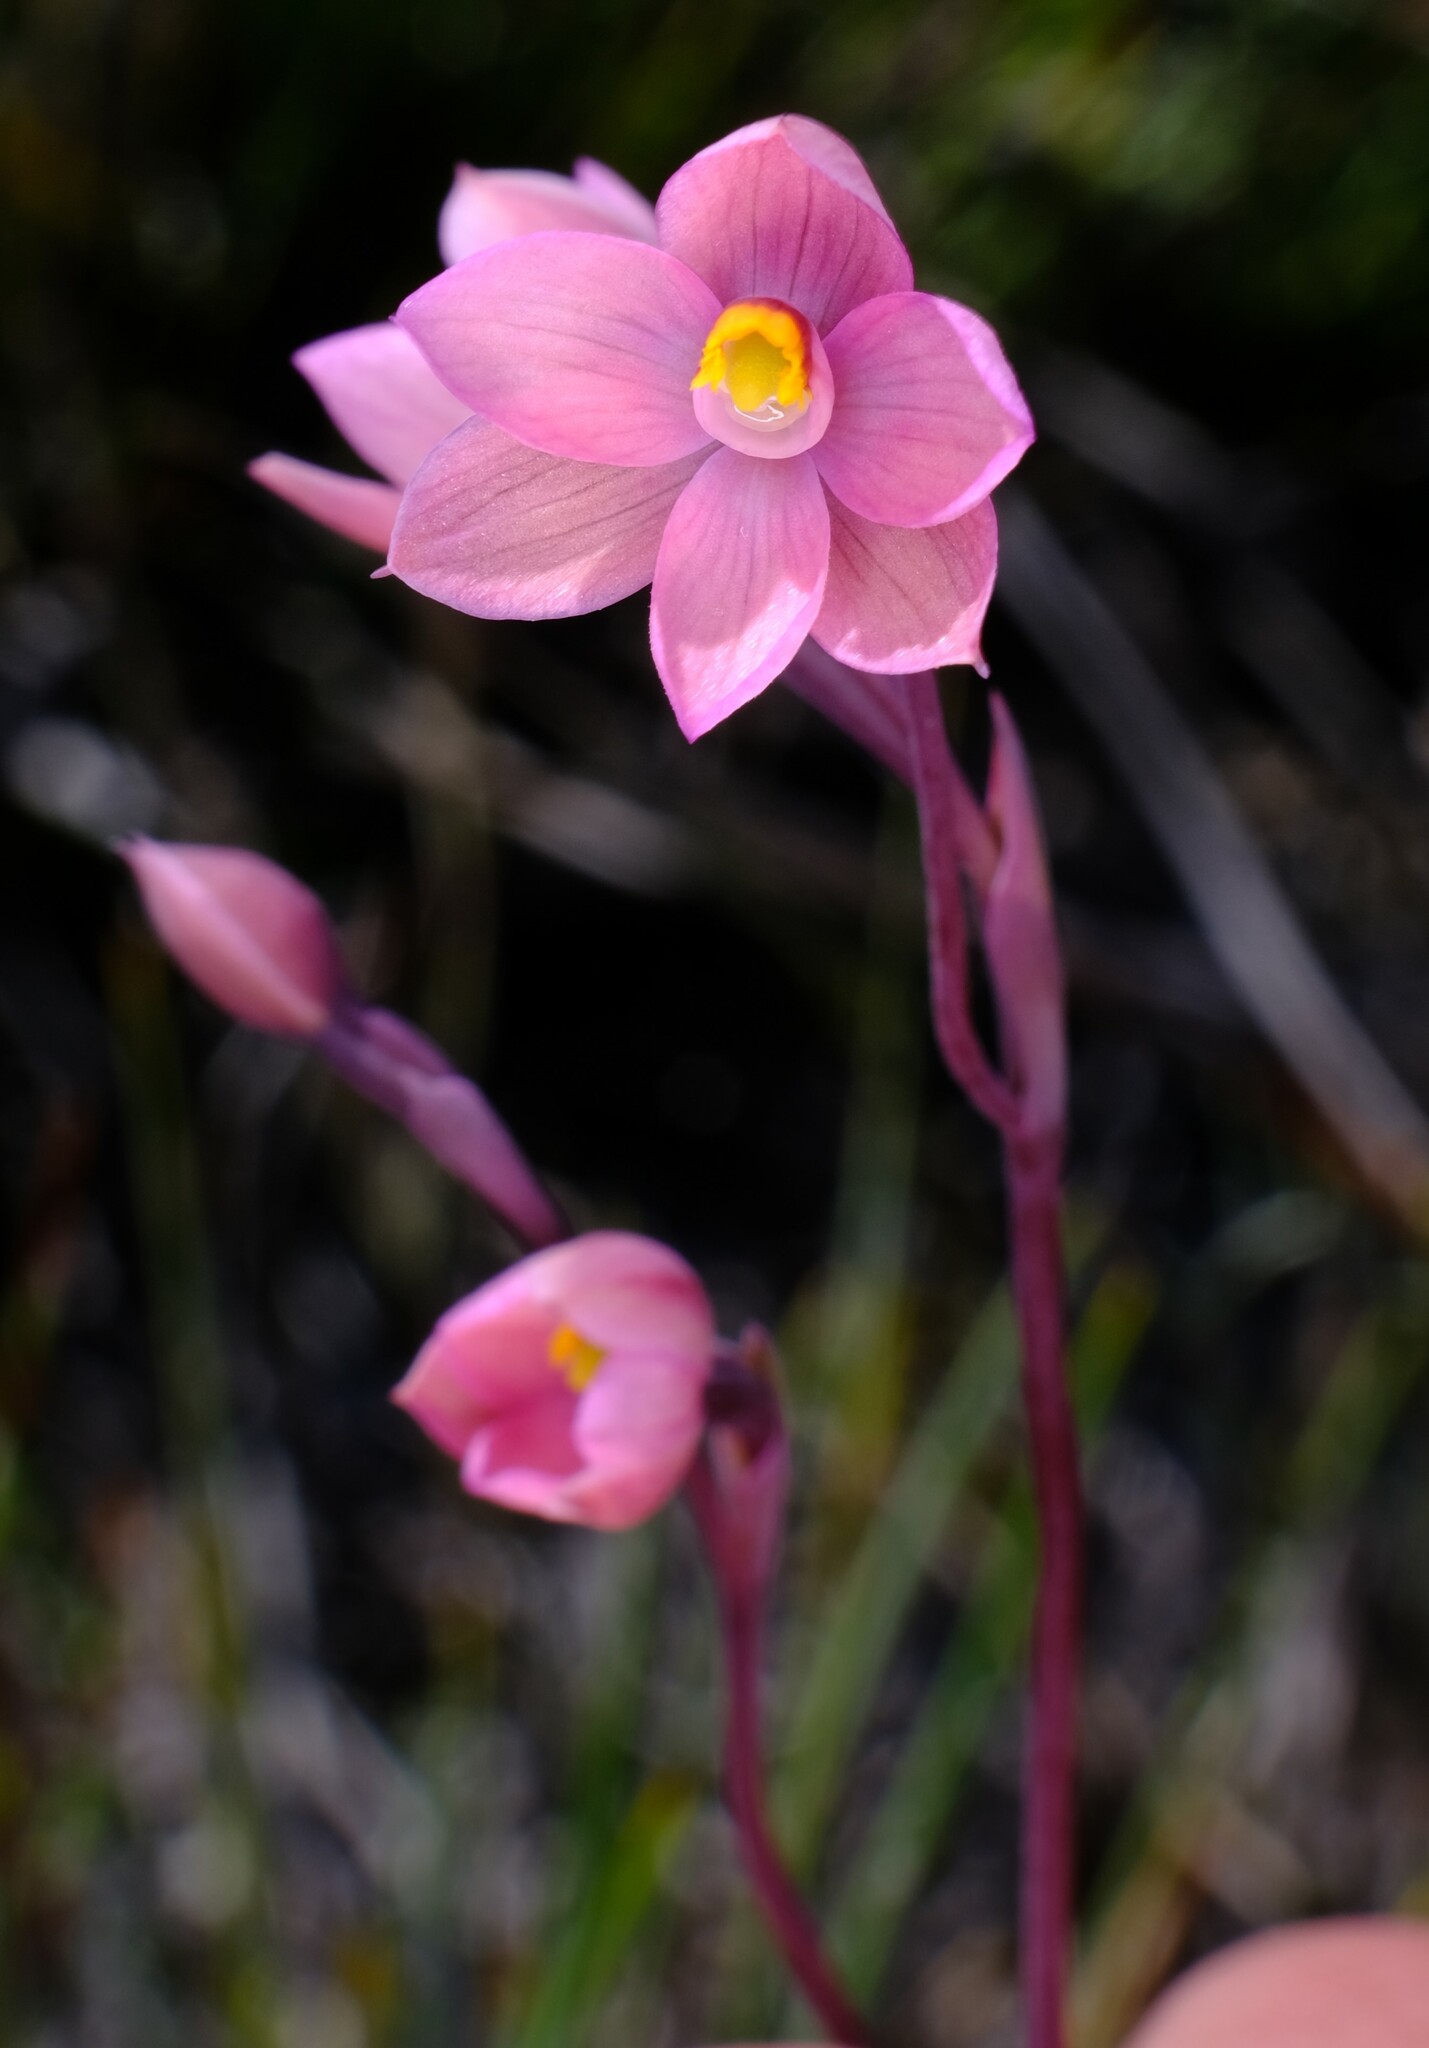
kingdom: Plantae
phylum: Tracheophyta
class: Liliopsida
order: Asparagales
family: Orchidaceae
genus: Thelymitra
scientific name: Thelymitra rubra
